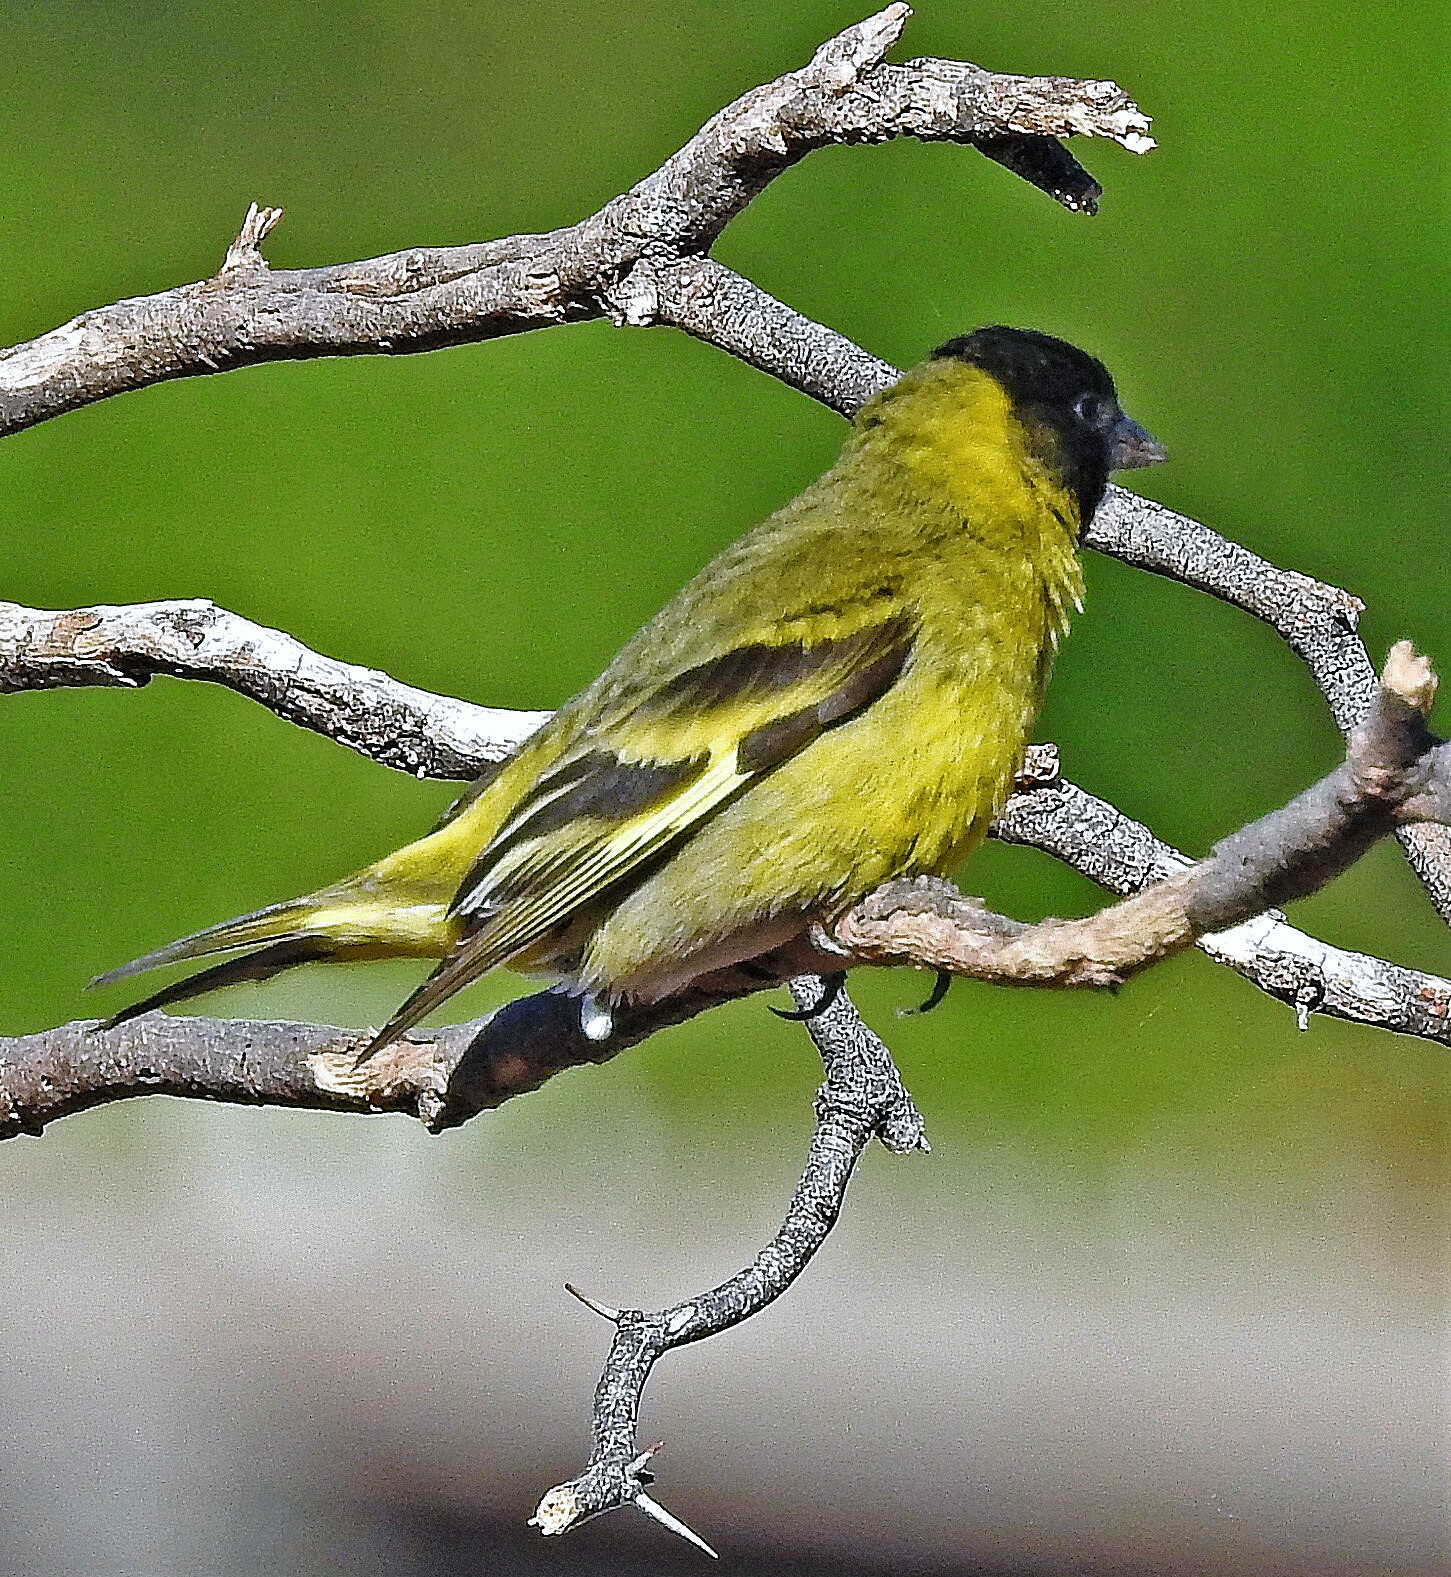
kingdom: Animalia
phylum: Chordata
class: Aves
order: Passeriformes
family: Fringillidae
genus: Spinus
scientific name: Spinus magellanicus
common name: Hooded siskin
